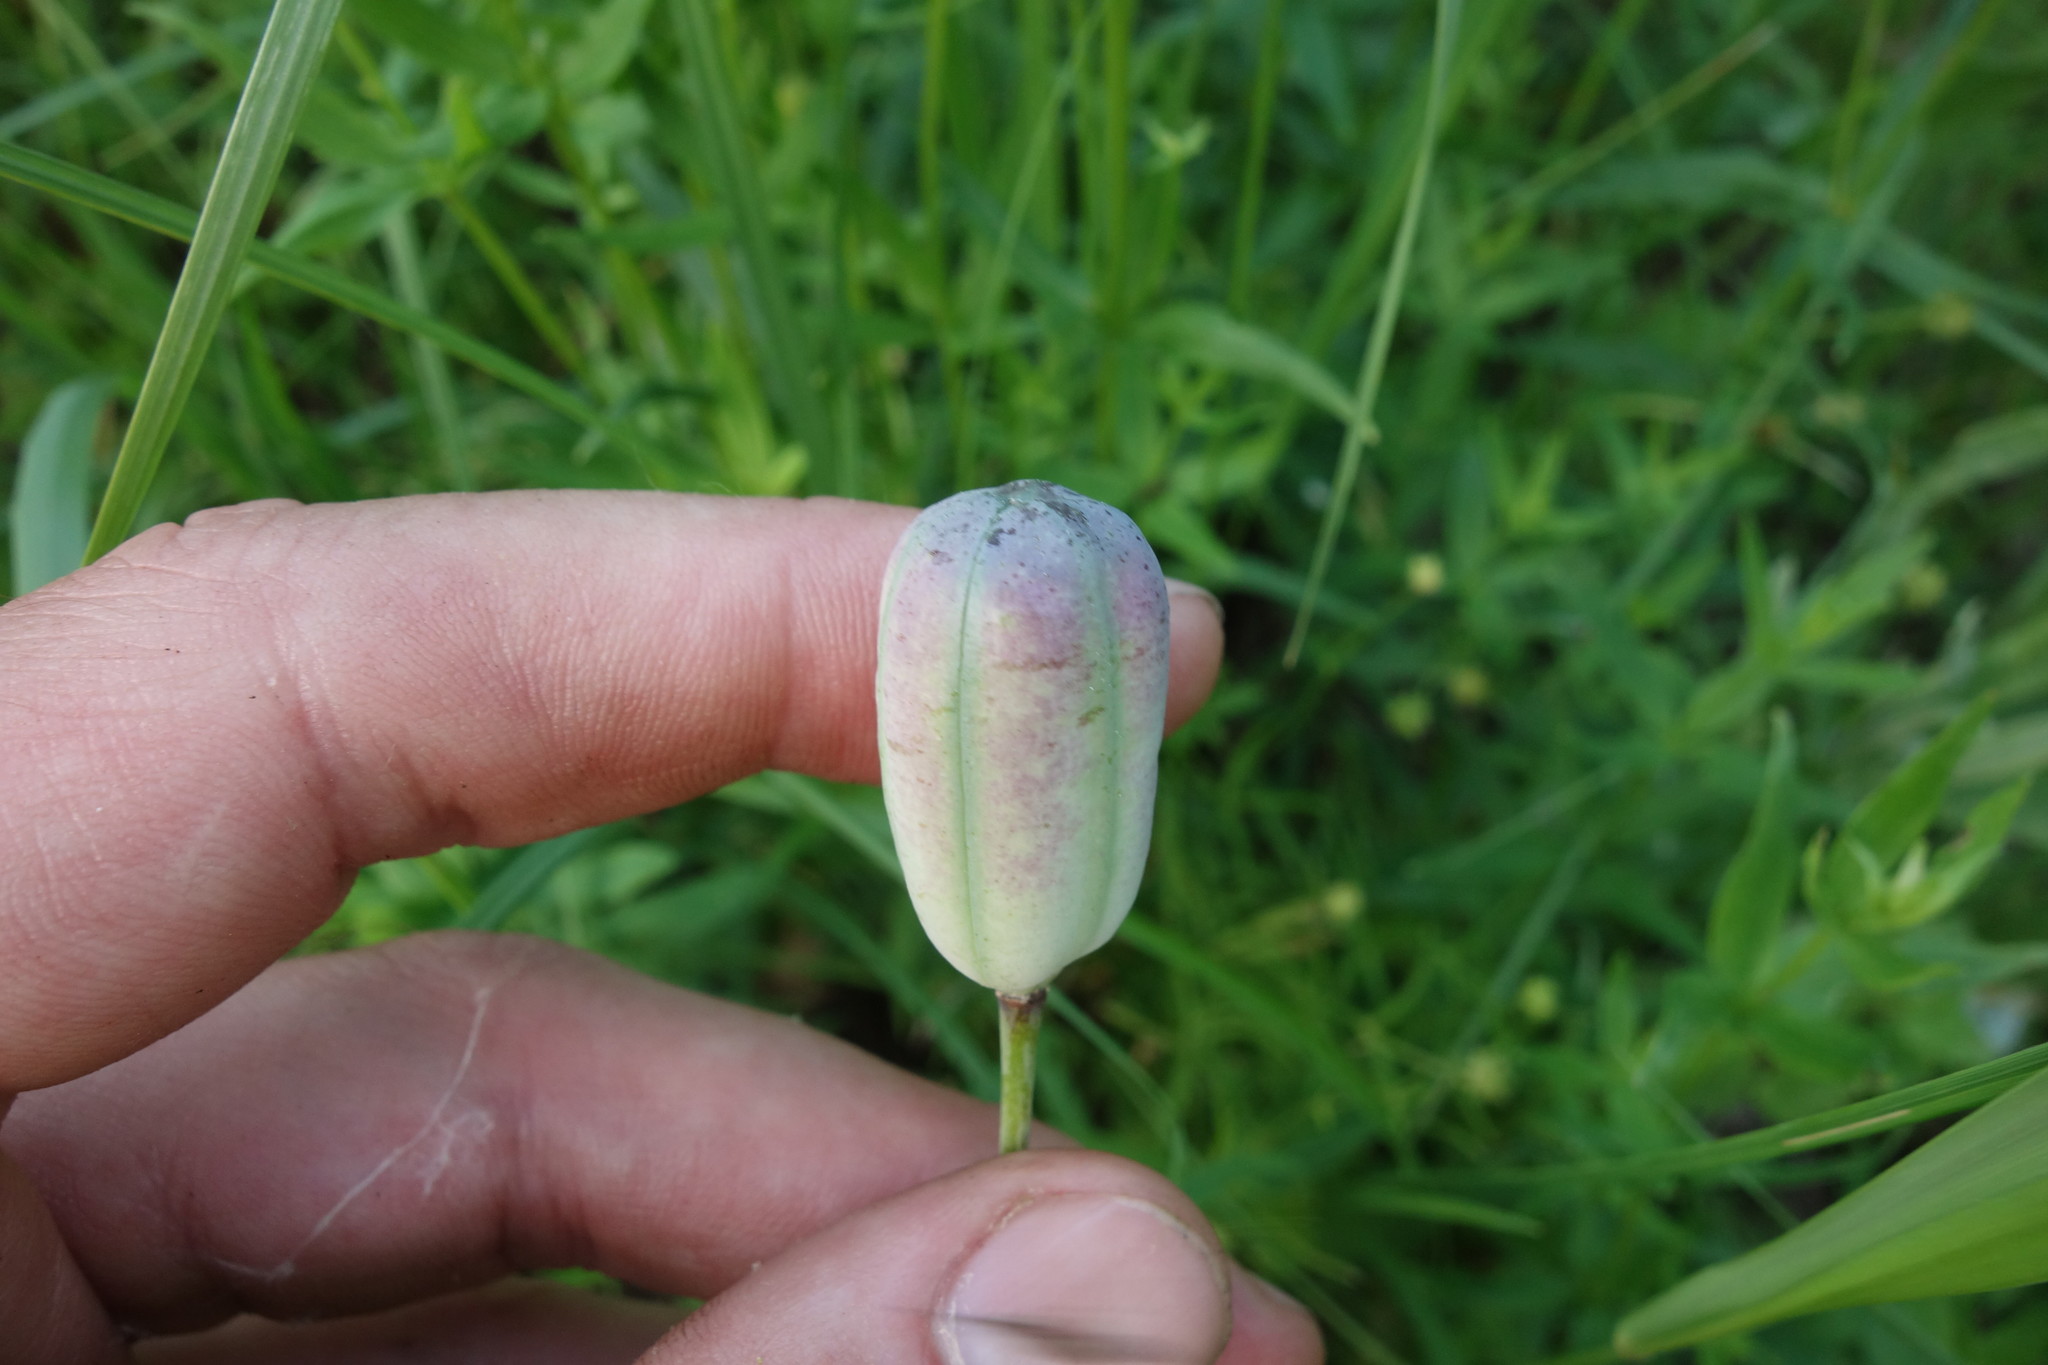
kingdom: Plantae
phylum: Tracheophyta
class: Liliopsida
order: Liliales
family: Liliaceae
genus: Fritillaria
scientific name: Fritillaria meleagroides
